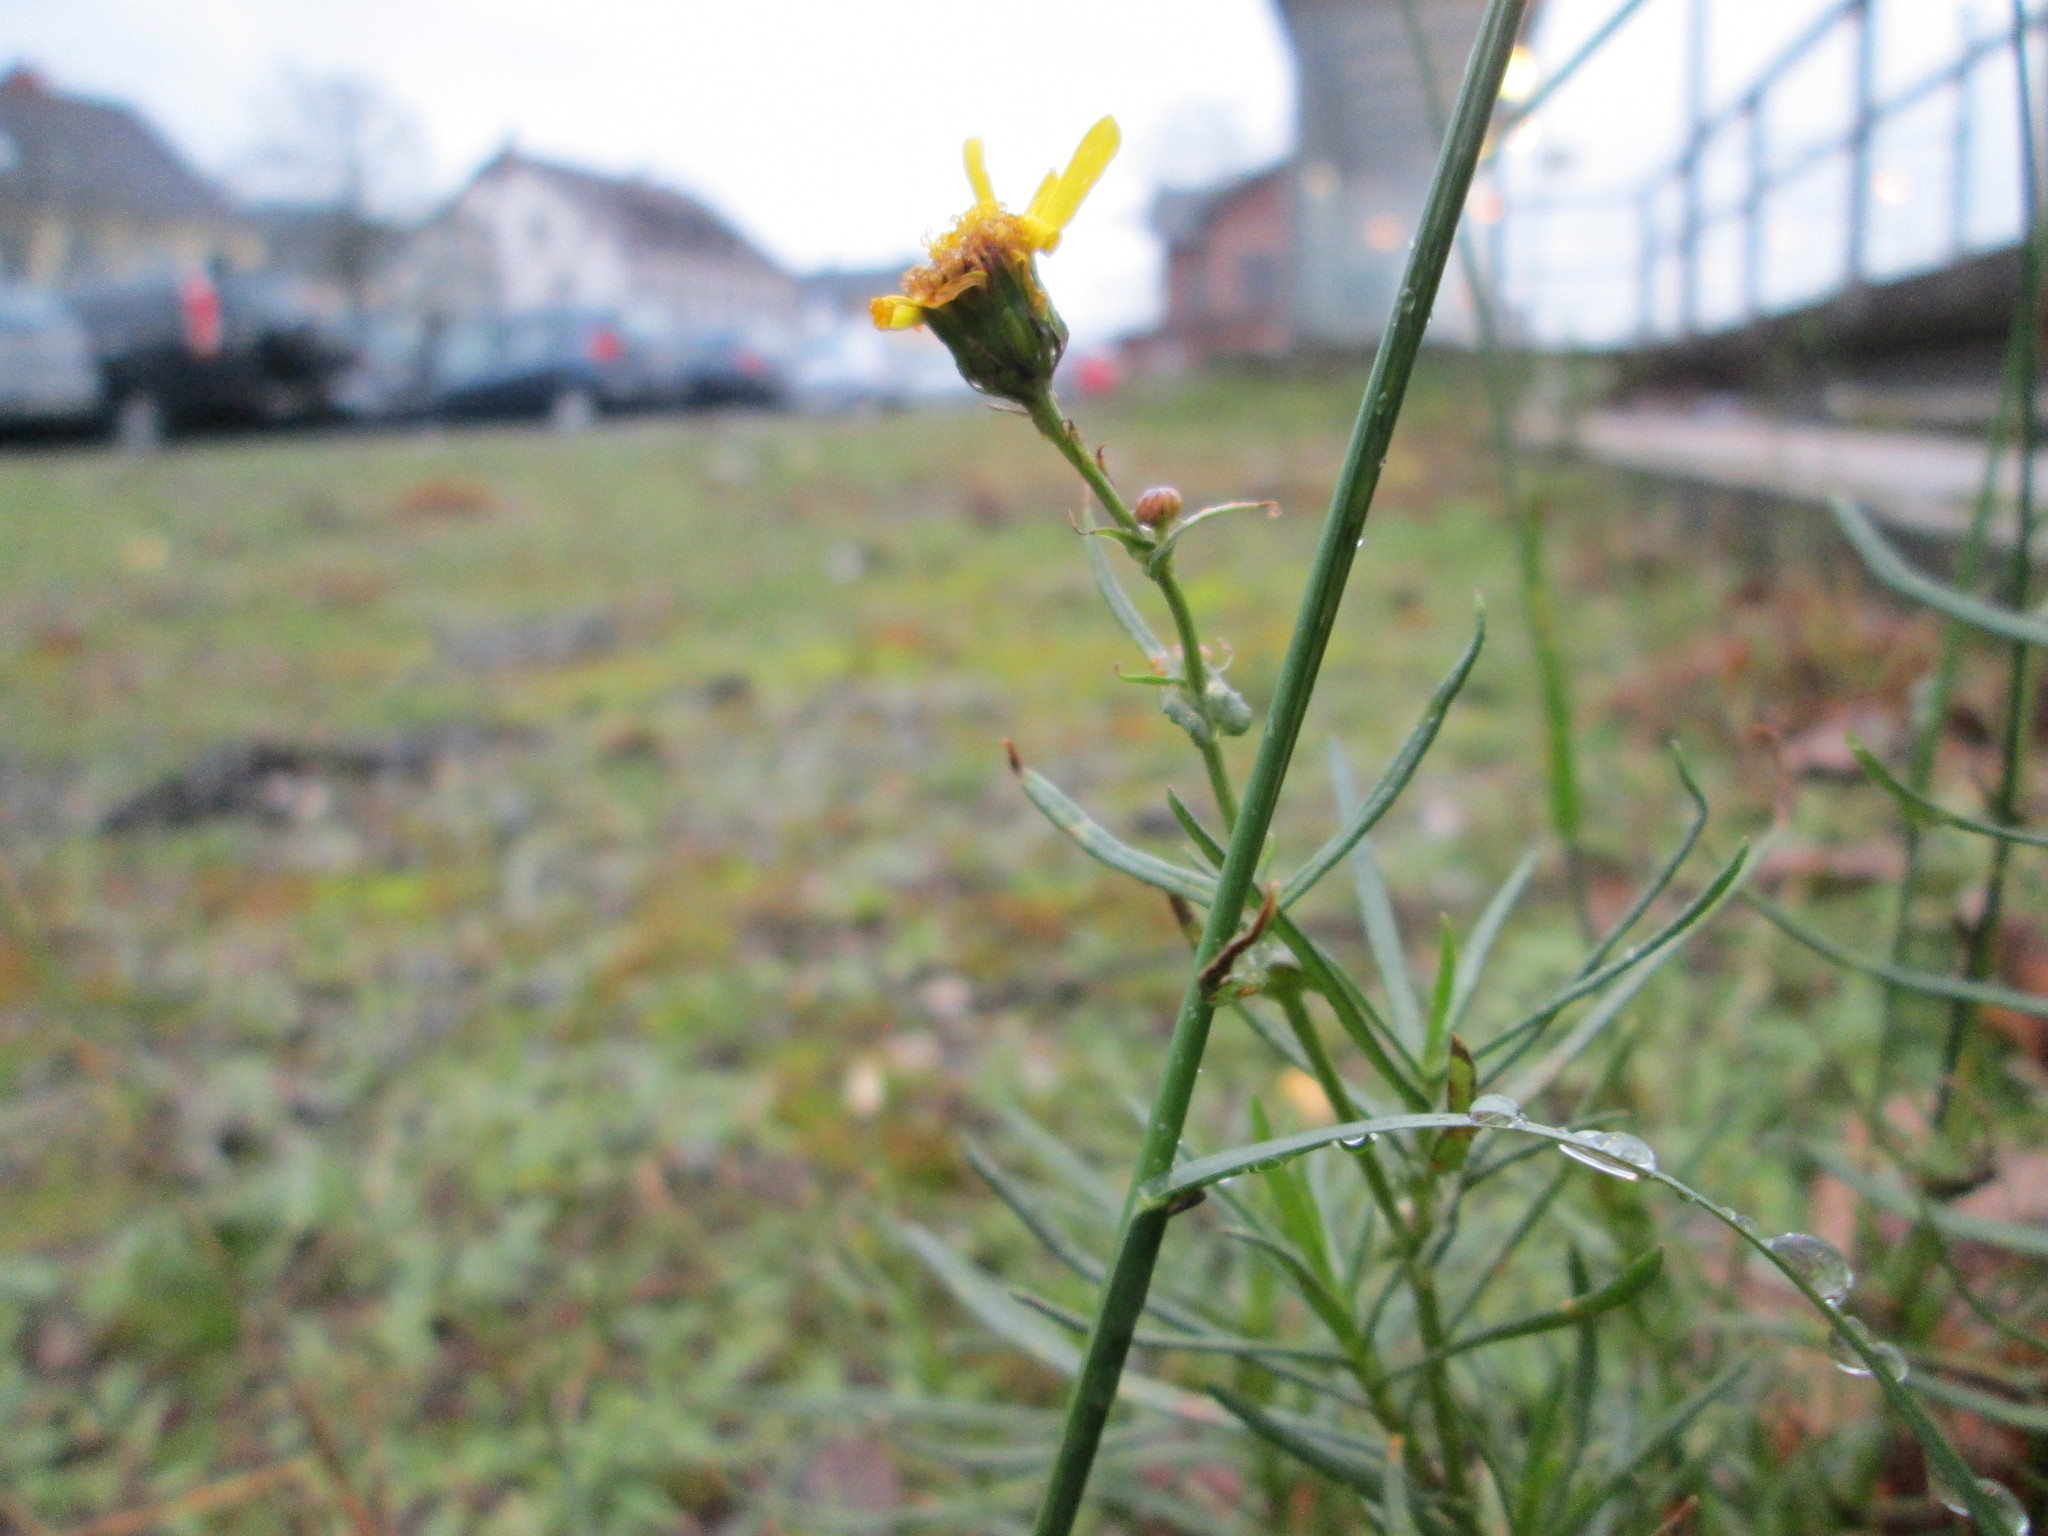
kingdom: Plantae
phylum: Tracheophyta
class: Magnoliopsida
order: Asterales
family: Asteraceae
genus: Senecio
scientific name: Senecio inaequidens
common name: Narrow-leaved ragwort
